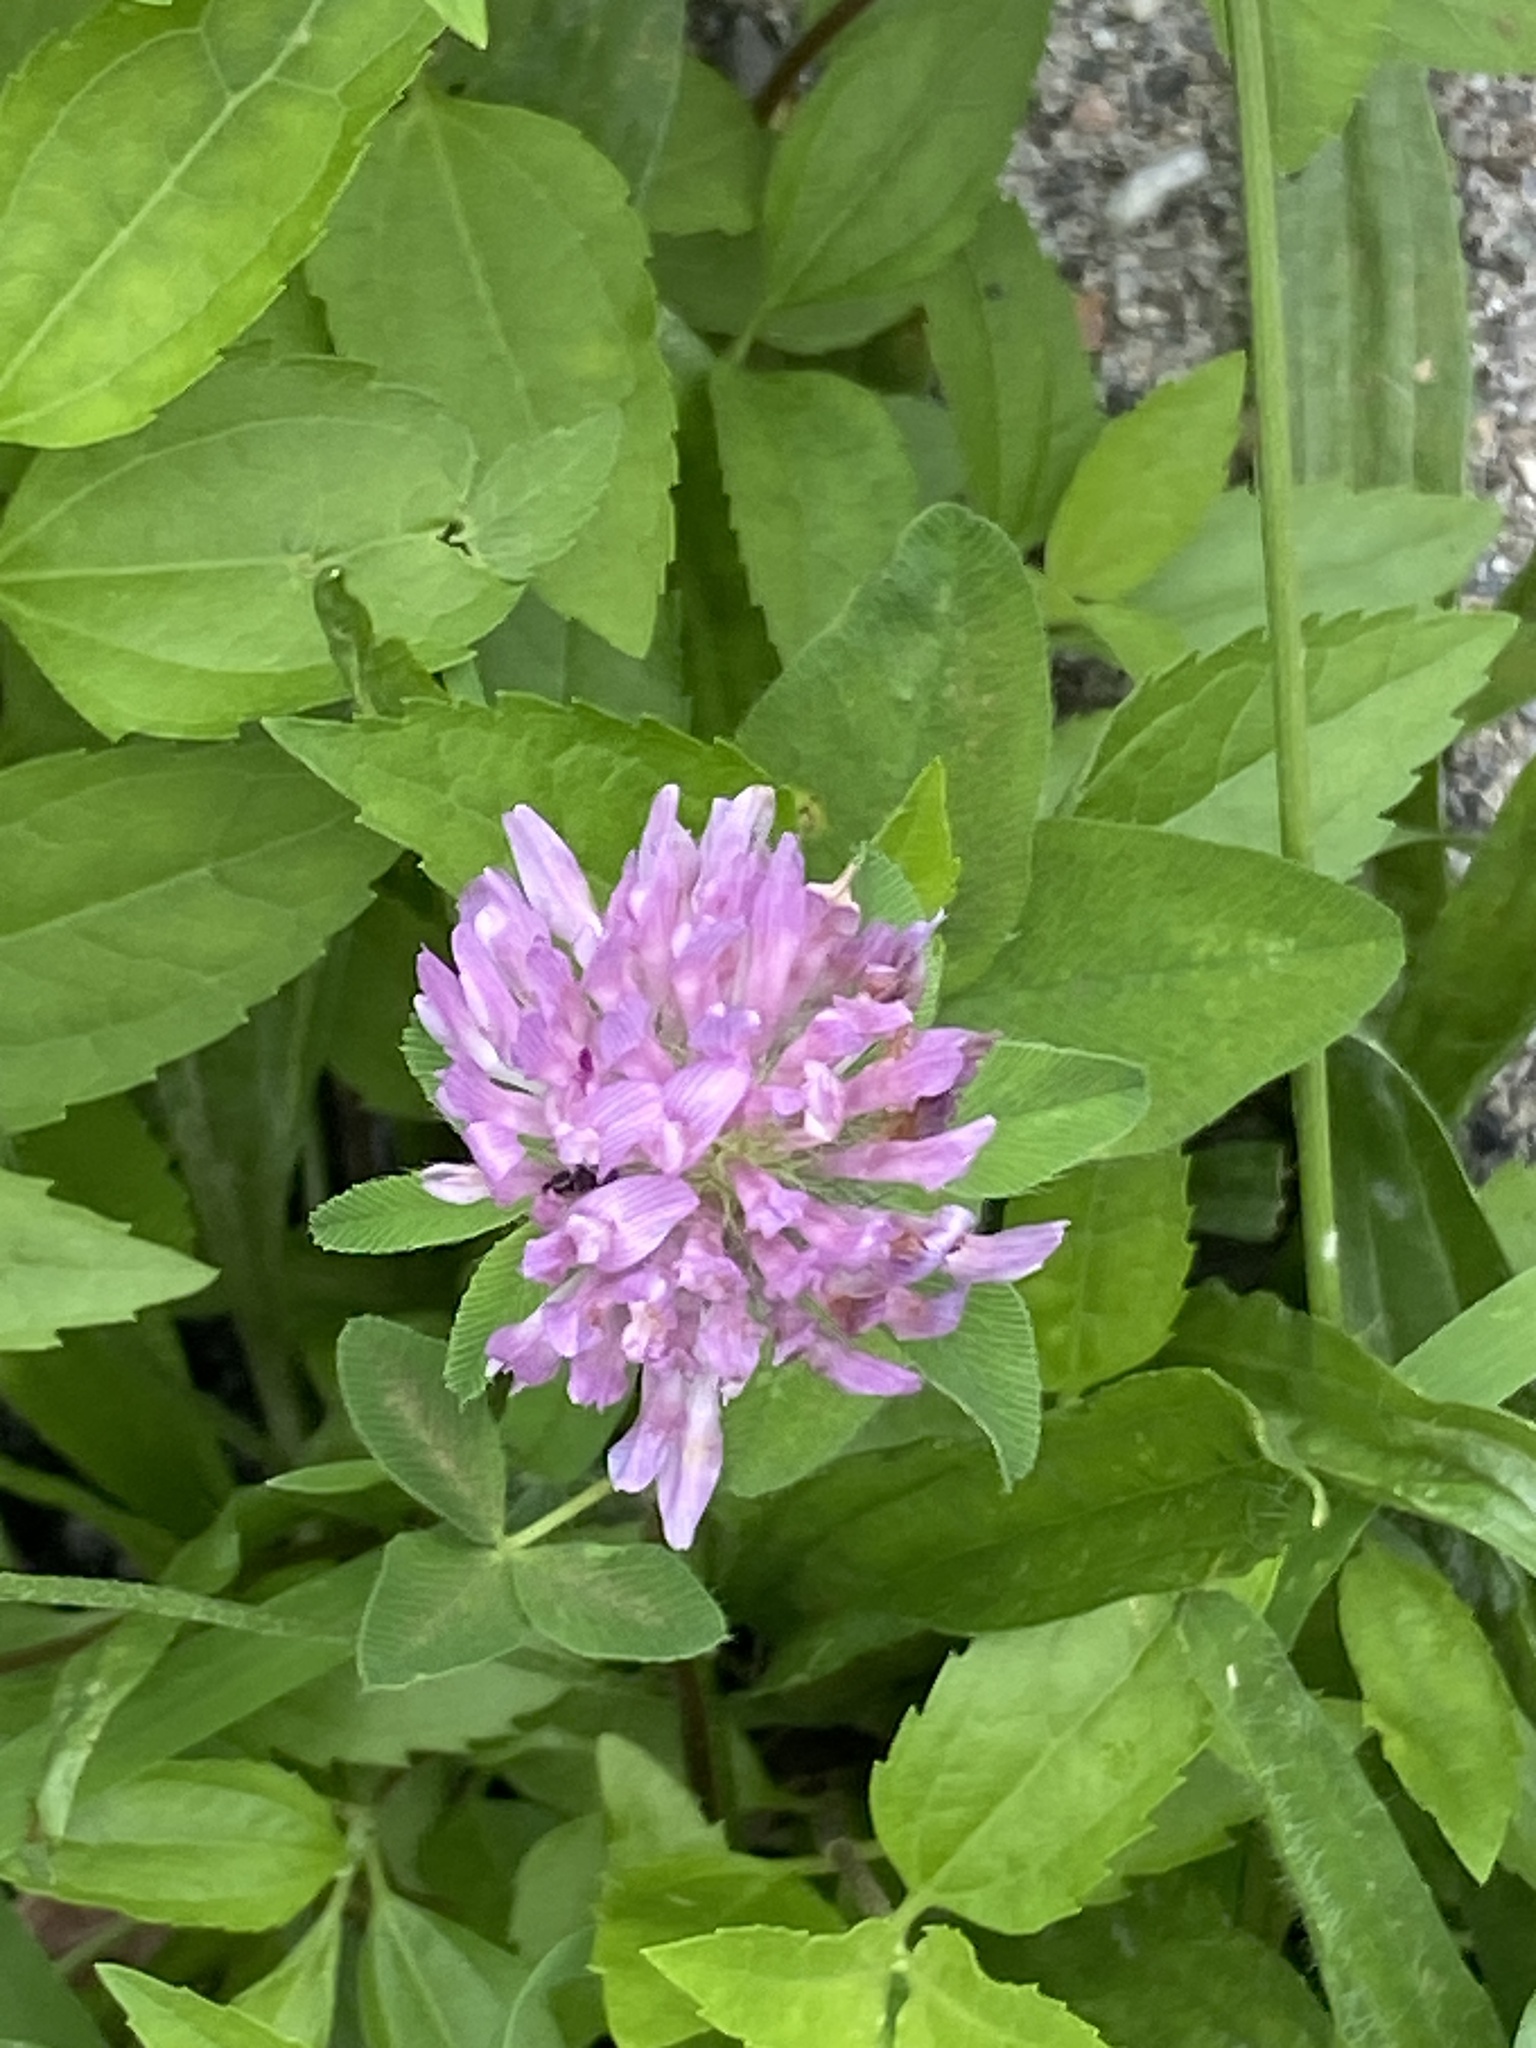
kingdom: Plantae
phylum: Tracheophyta
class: Magnoliopsida
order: Fabales
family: Fabaceae
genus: Trifolium
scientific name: Trifolium pratense
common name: Red clover
